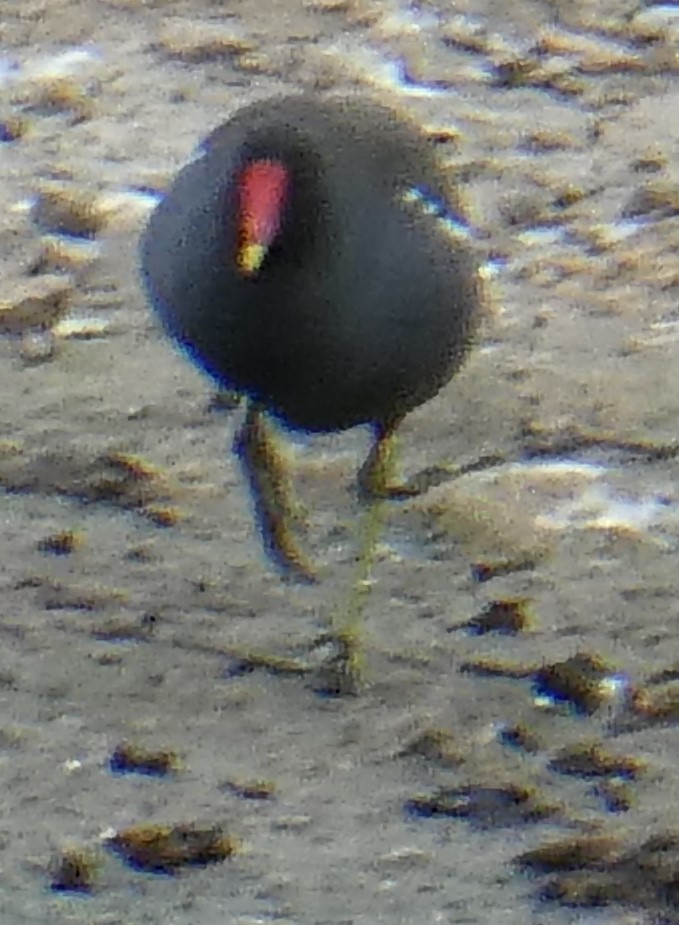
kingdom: Animalia
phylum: Chordata
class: Aves
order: Gruiformes
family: Rallidae
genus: Gallinula
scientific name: Gallinula chloropus
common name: Common moorhen
